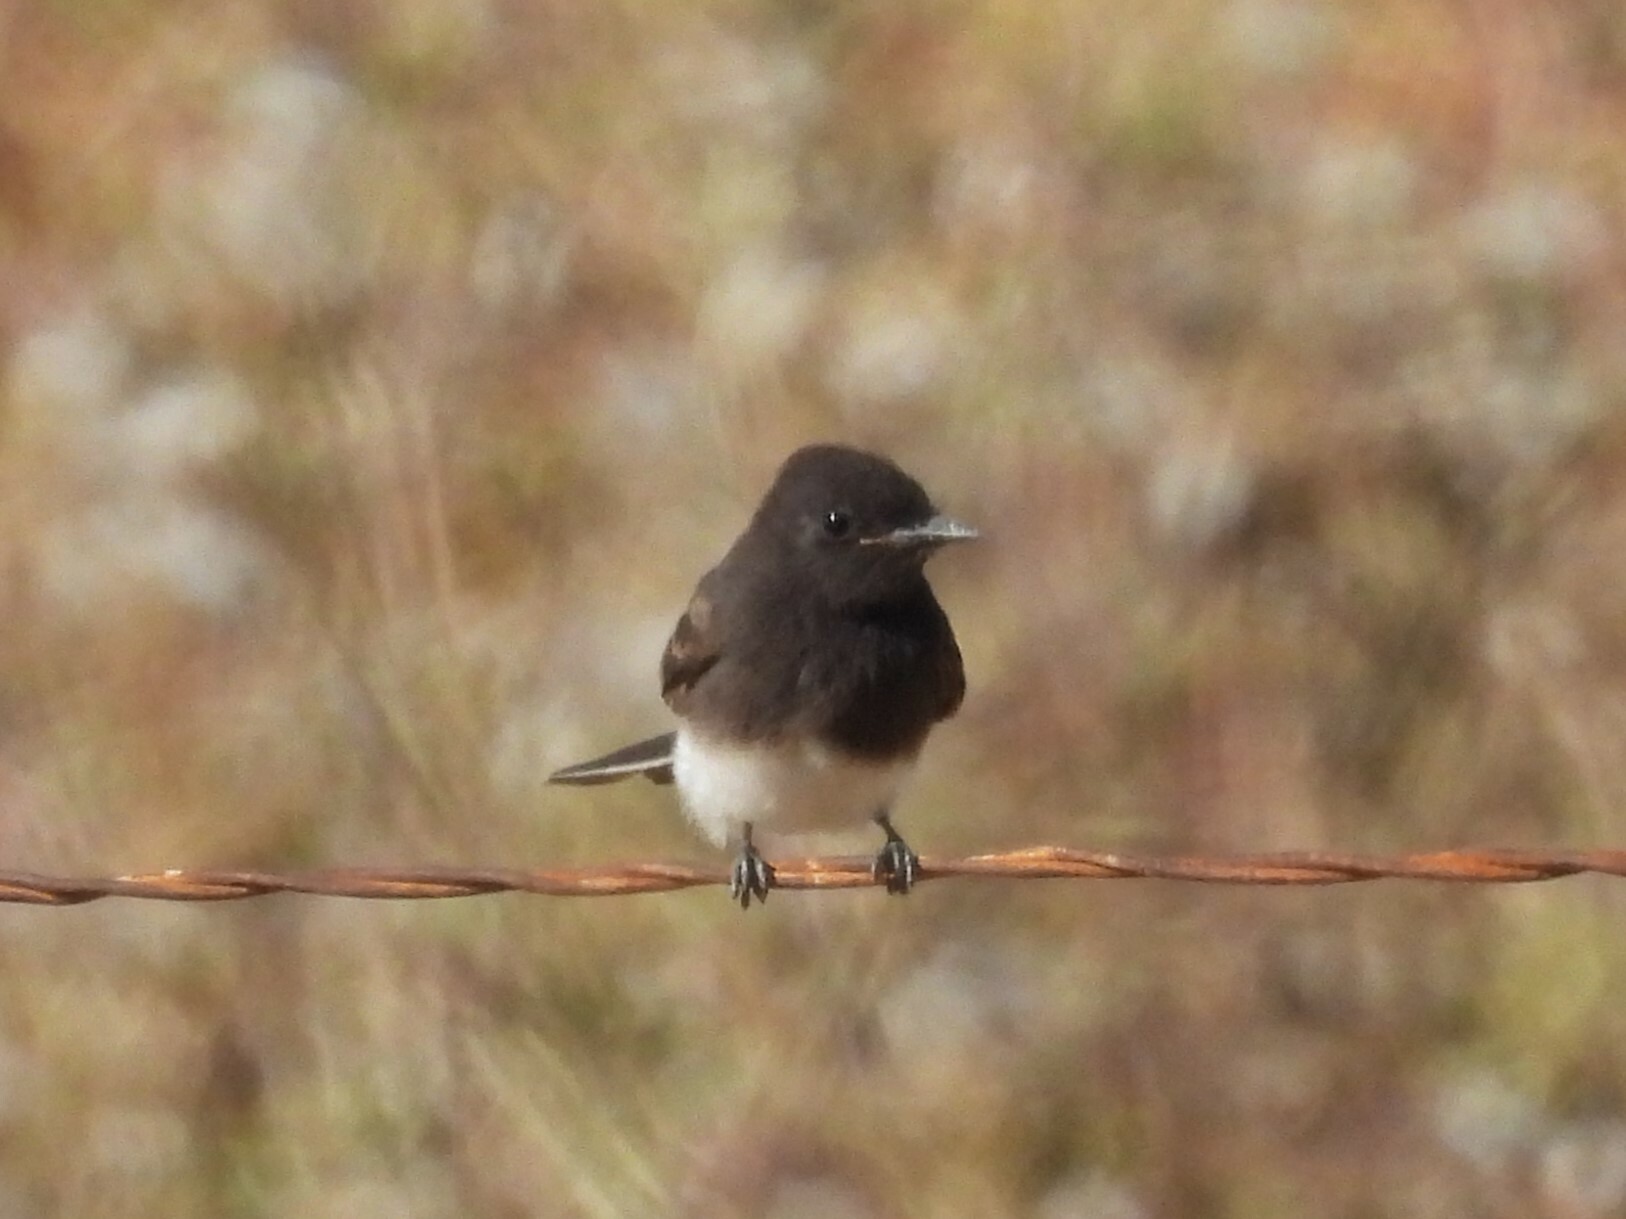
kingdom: Animalia
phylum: Chordata
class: Aves
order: Passeriformes
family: Tyrannidae
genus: Sayornis
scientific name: Sayornis nigricans
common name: Black phoebe
